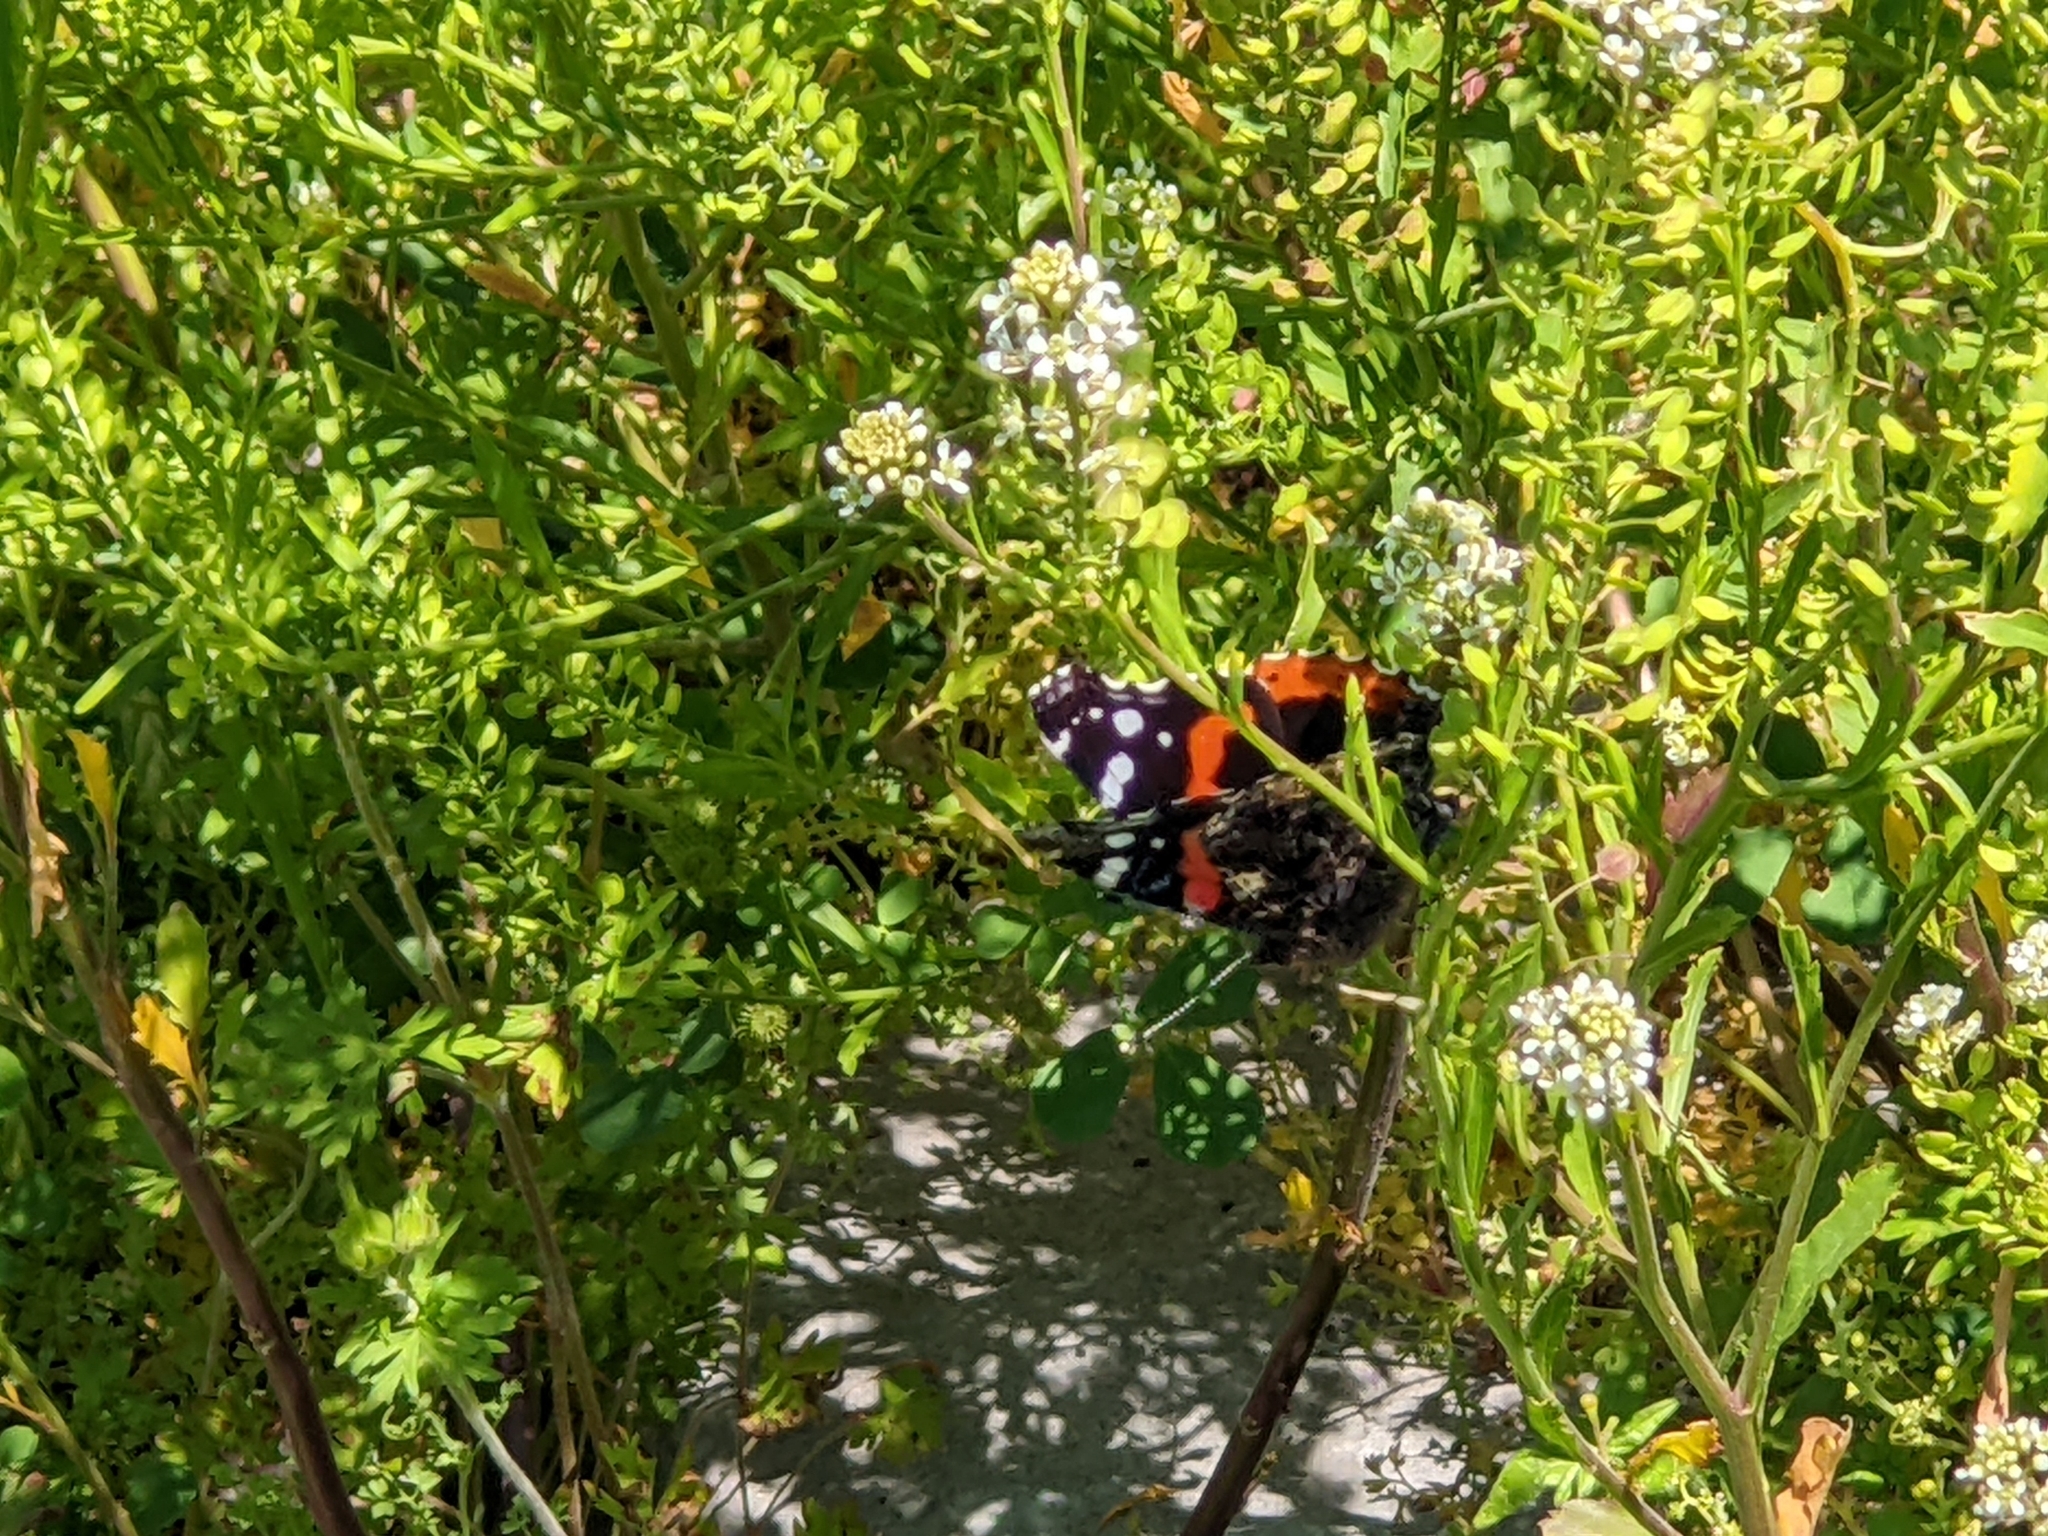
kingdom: Animalia
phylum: Arthropoda
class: Insecta
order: Lepidoptera
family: Nymphalidae
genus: Vanessa
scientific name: Vanessa atalanta
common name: Red admiral
